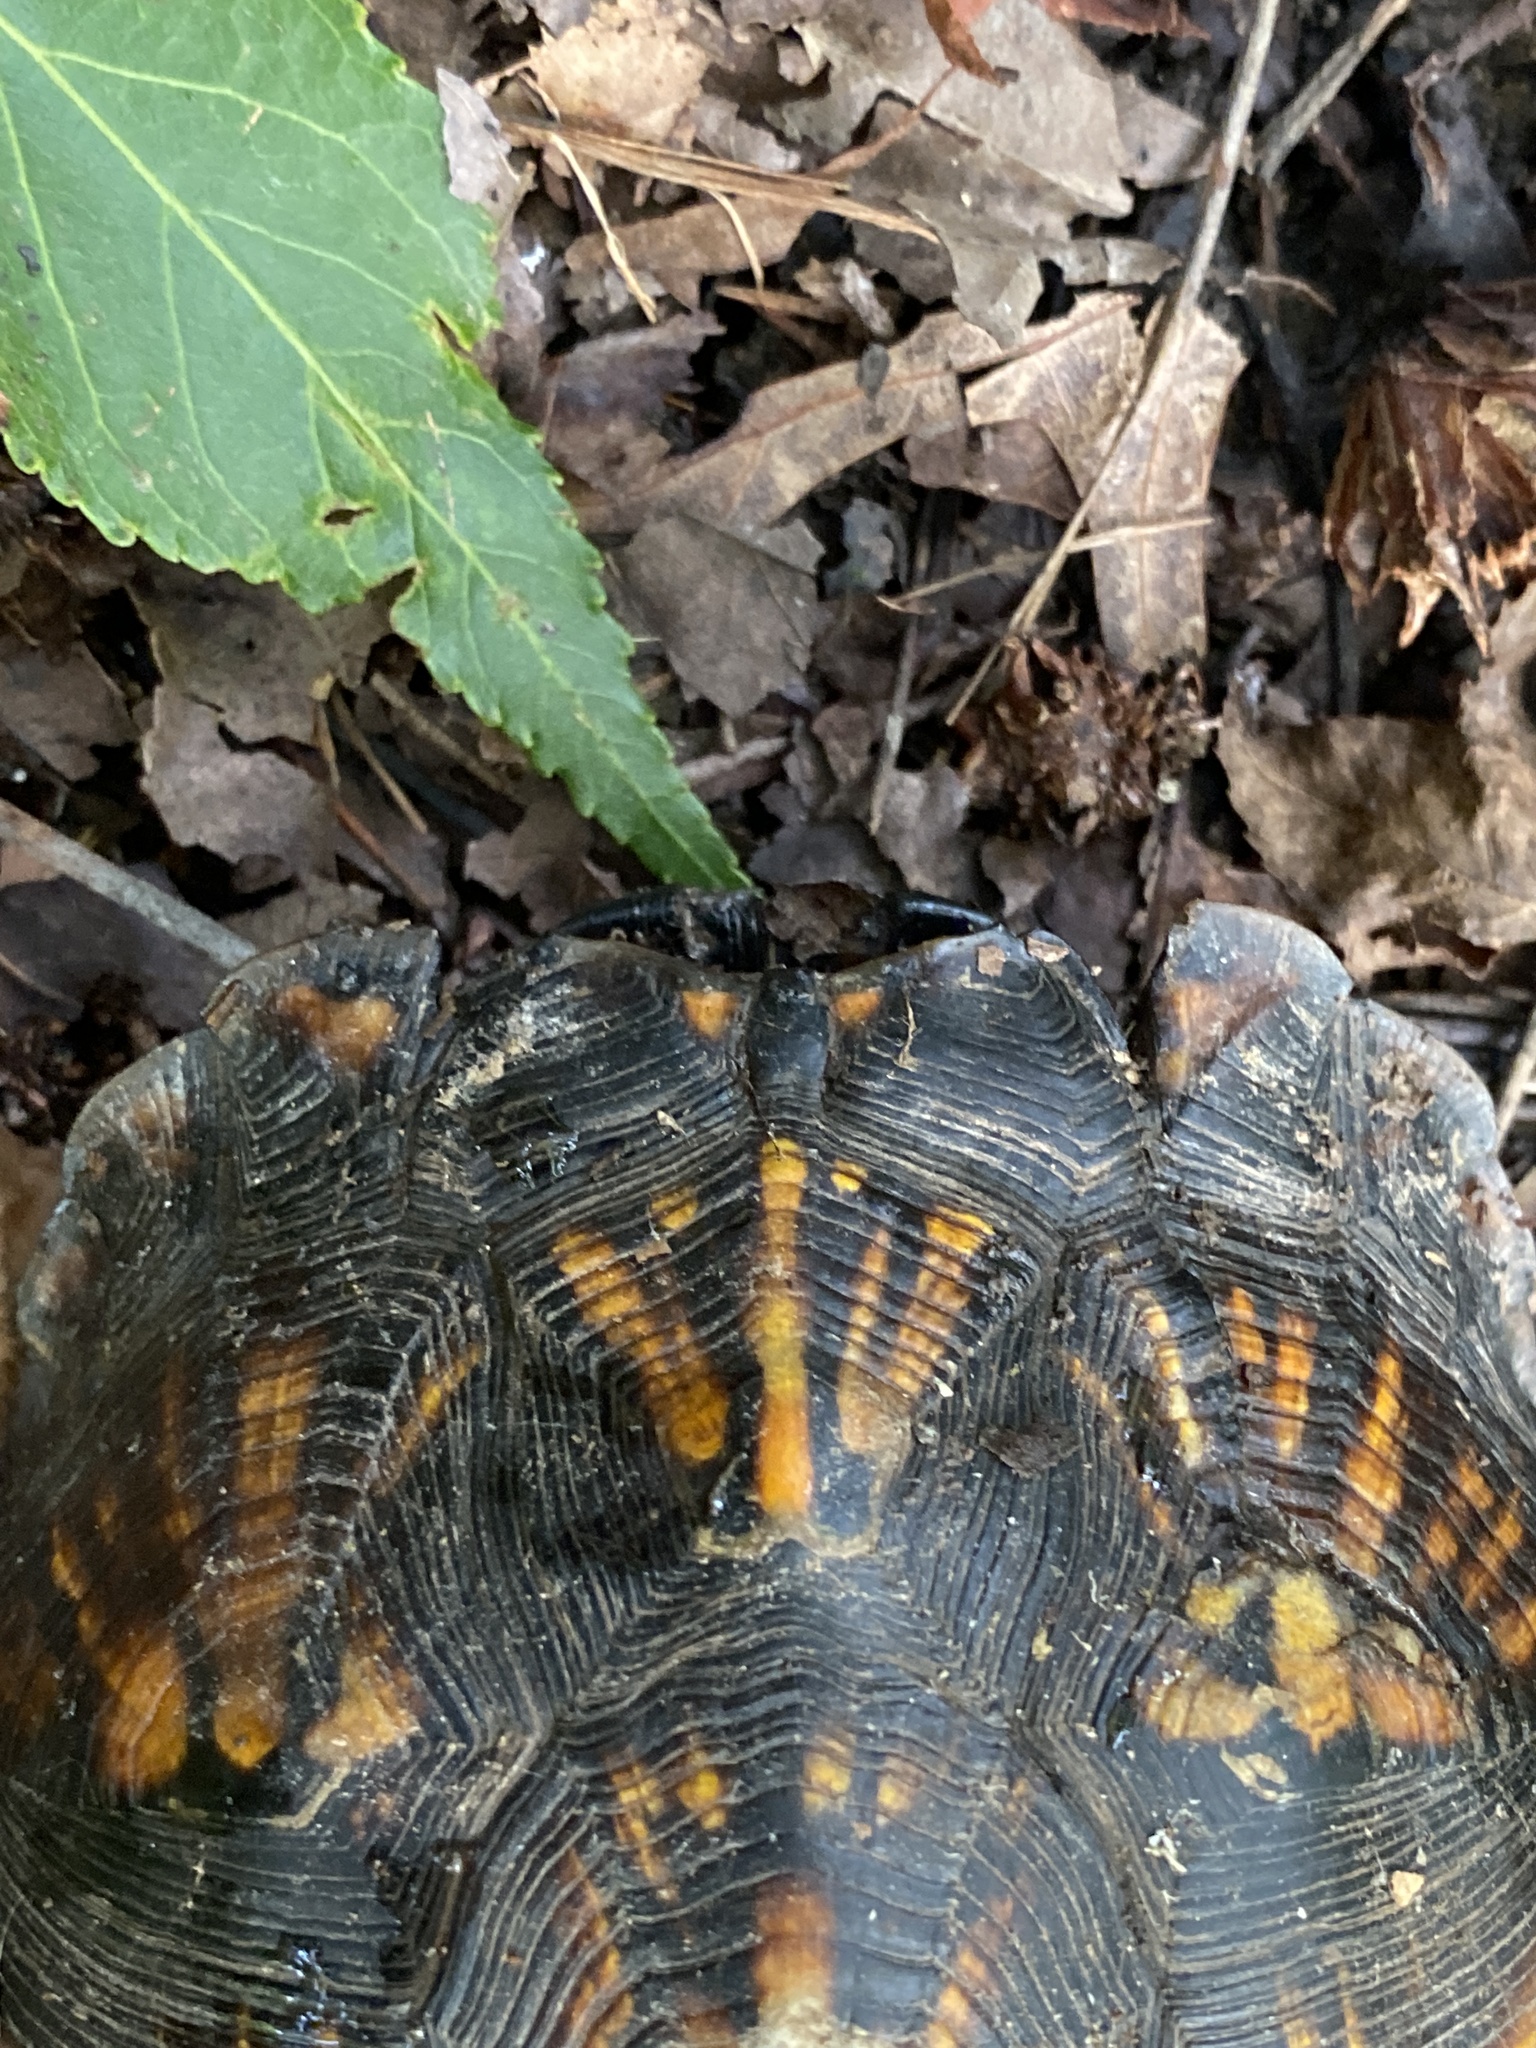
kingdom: Animalia
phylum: Chordata
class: Testudines
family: Emydidae
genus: Terrapene
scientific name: Terrapene carolina
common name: Common box turtle
